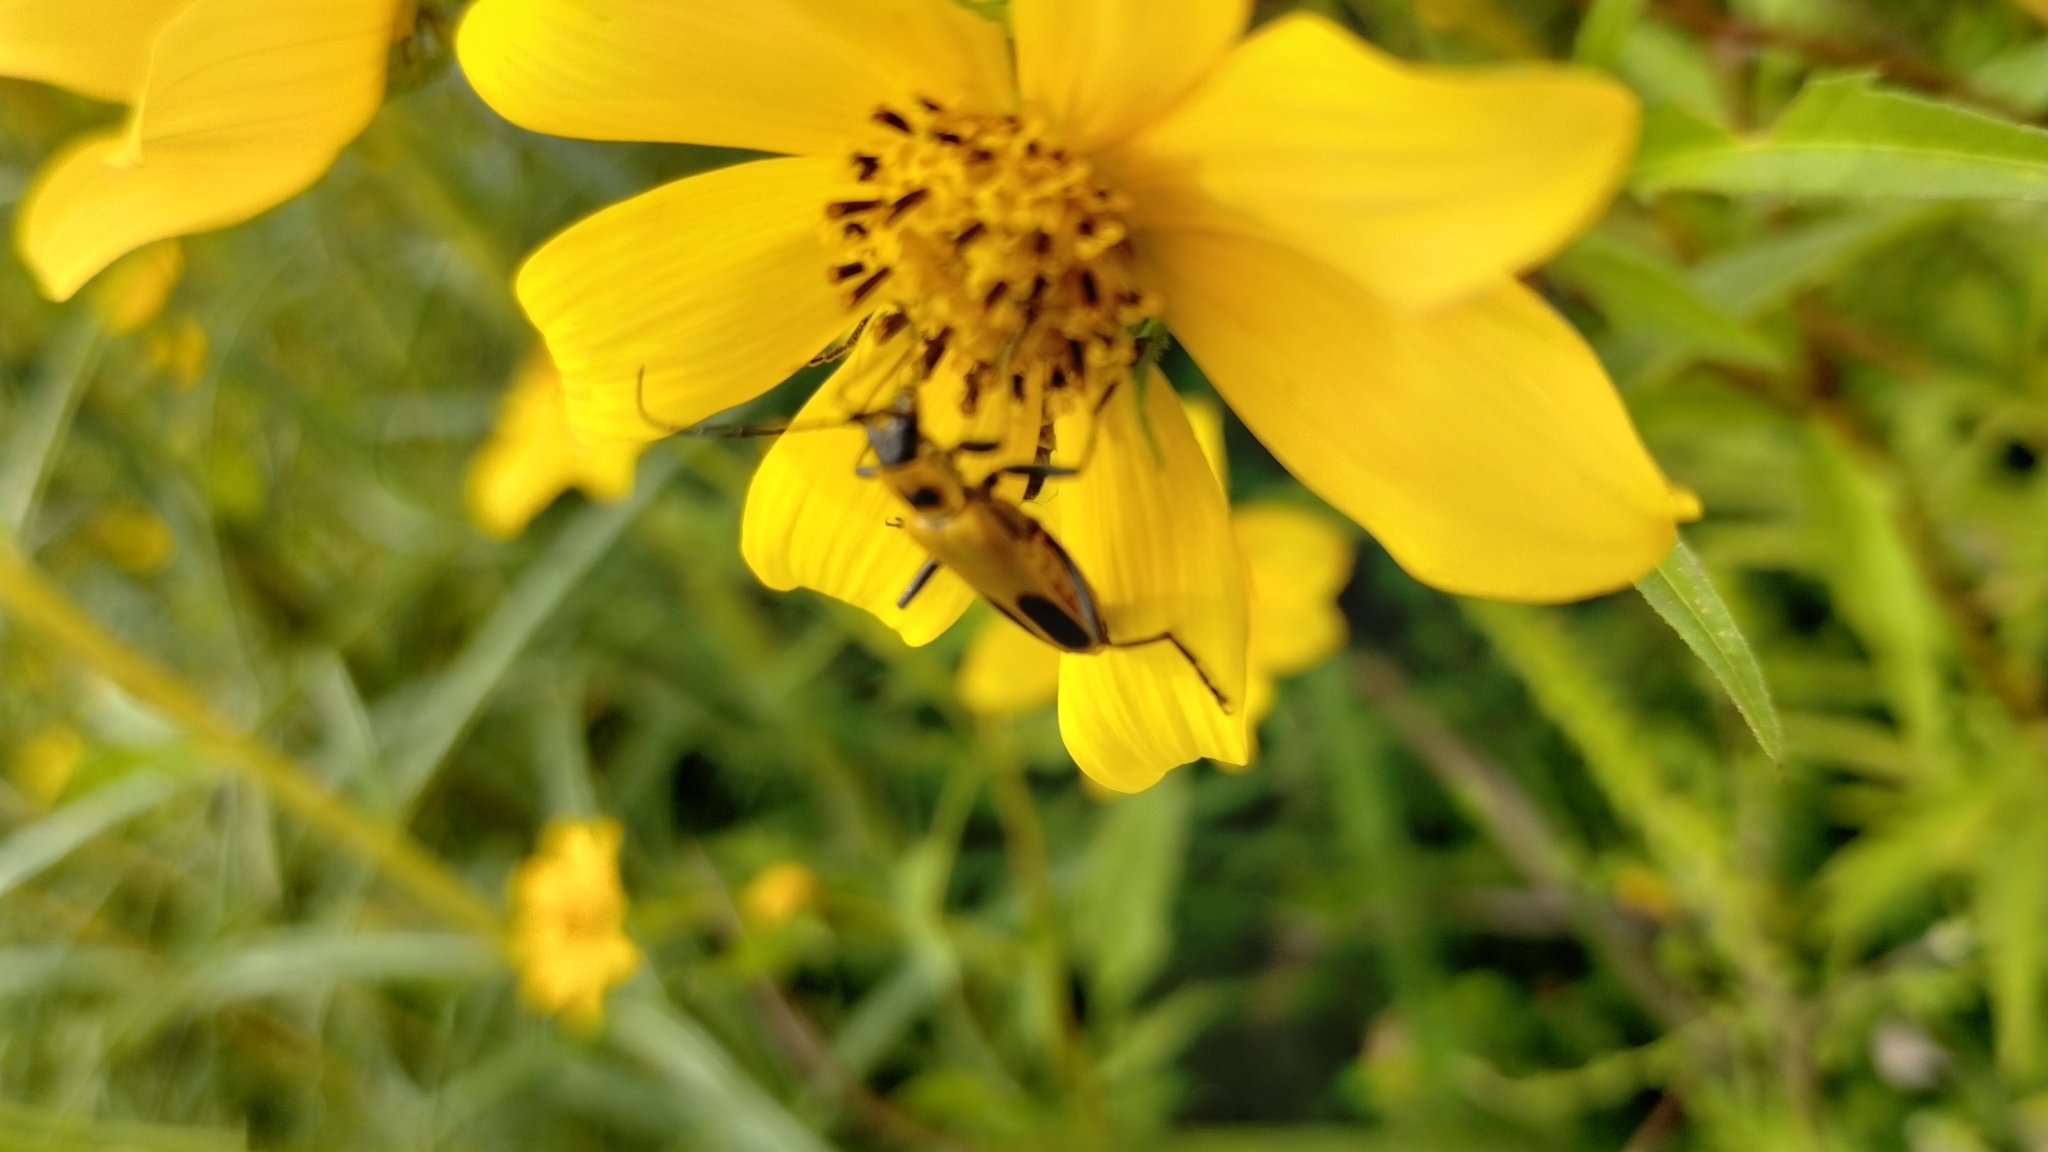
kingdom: Animalia
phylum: Arthropoda
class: Insecta
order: Coleoptera
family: Cantharidae
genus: Chauliognathus
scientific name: Chauliognathus pensylvanicus
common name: Goldenrod soldier beetle
